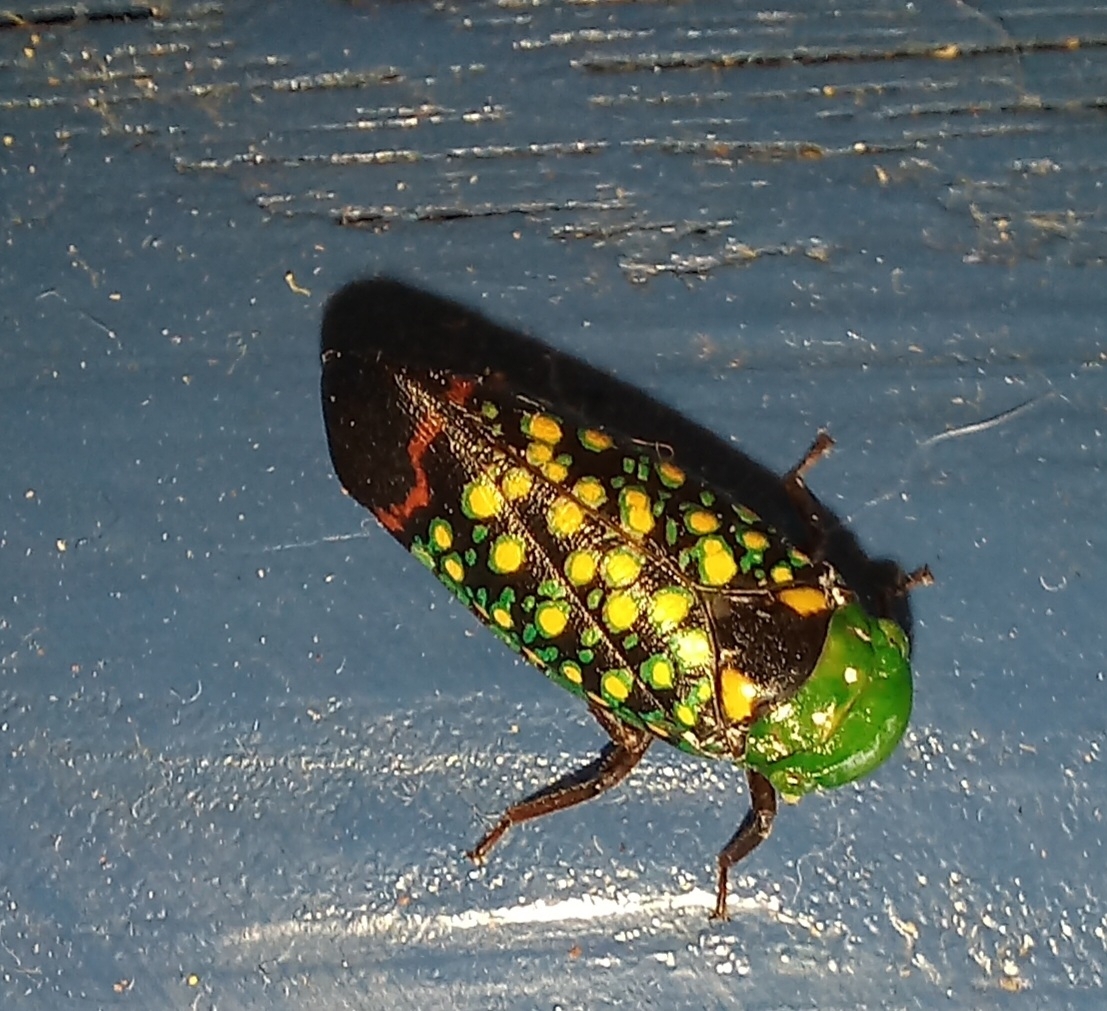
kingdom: Animalia
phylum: Arthropoda
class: Insecta
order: Hemiptera
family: Fulgoridae
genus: Eddara
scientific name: Eddara euchroma
